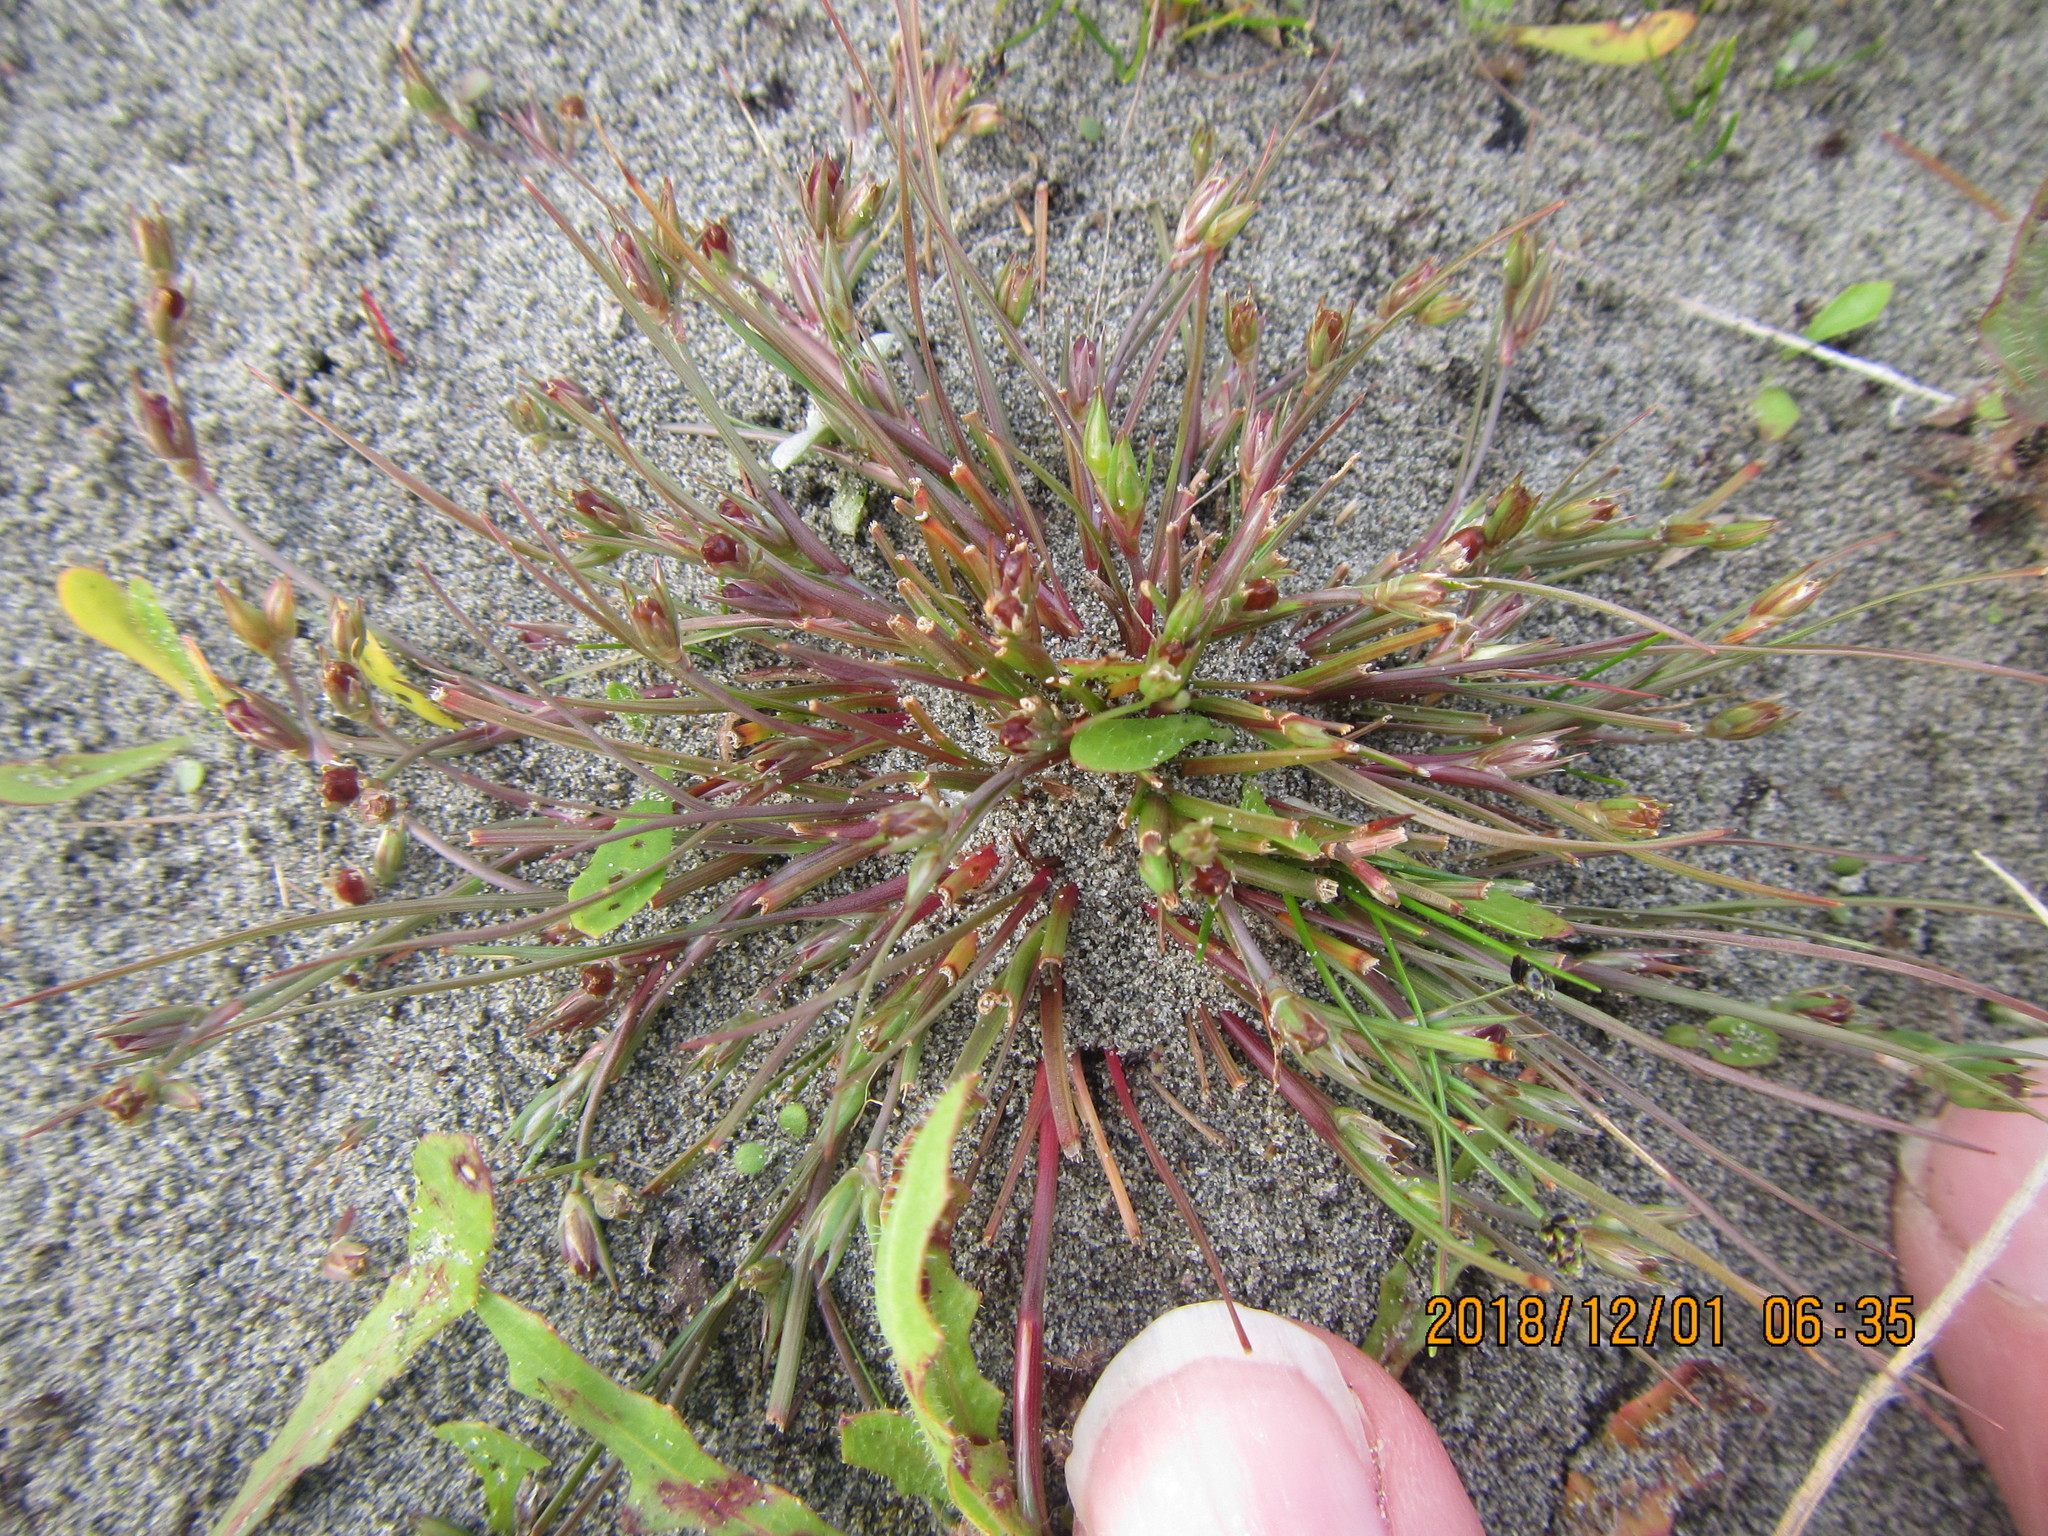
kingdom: Plantae
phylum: Tracheophyta
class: Liliopsida
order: Poales
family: Juncaceae
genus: Juncus
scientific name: Juncus bufonius
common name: Toad rush
